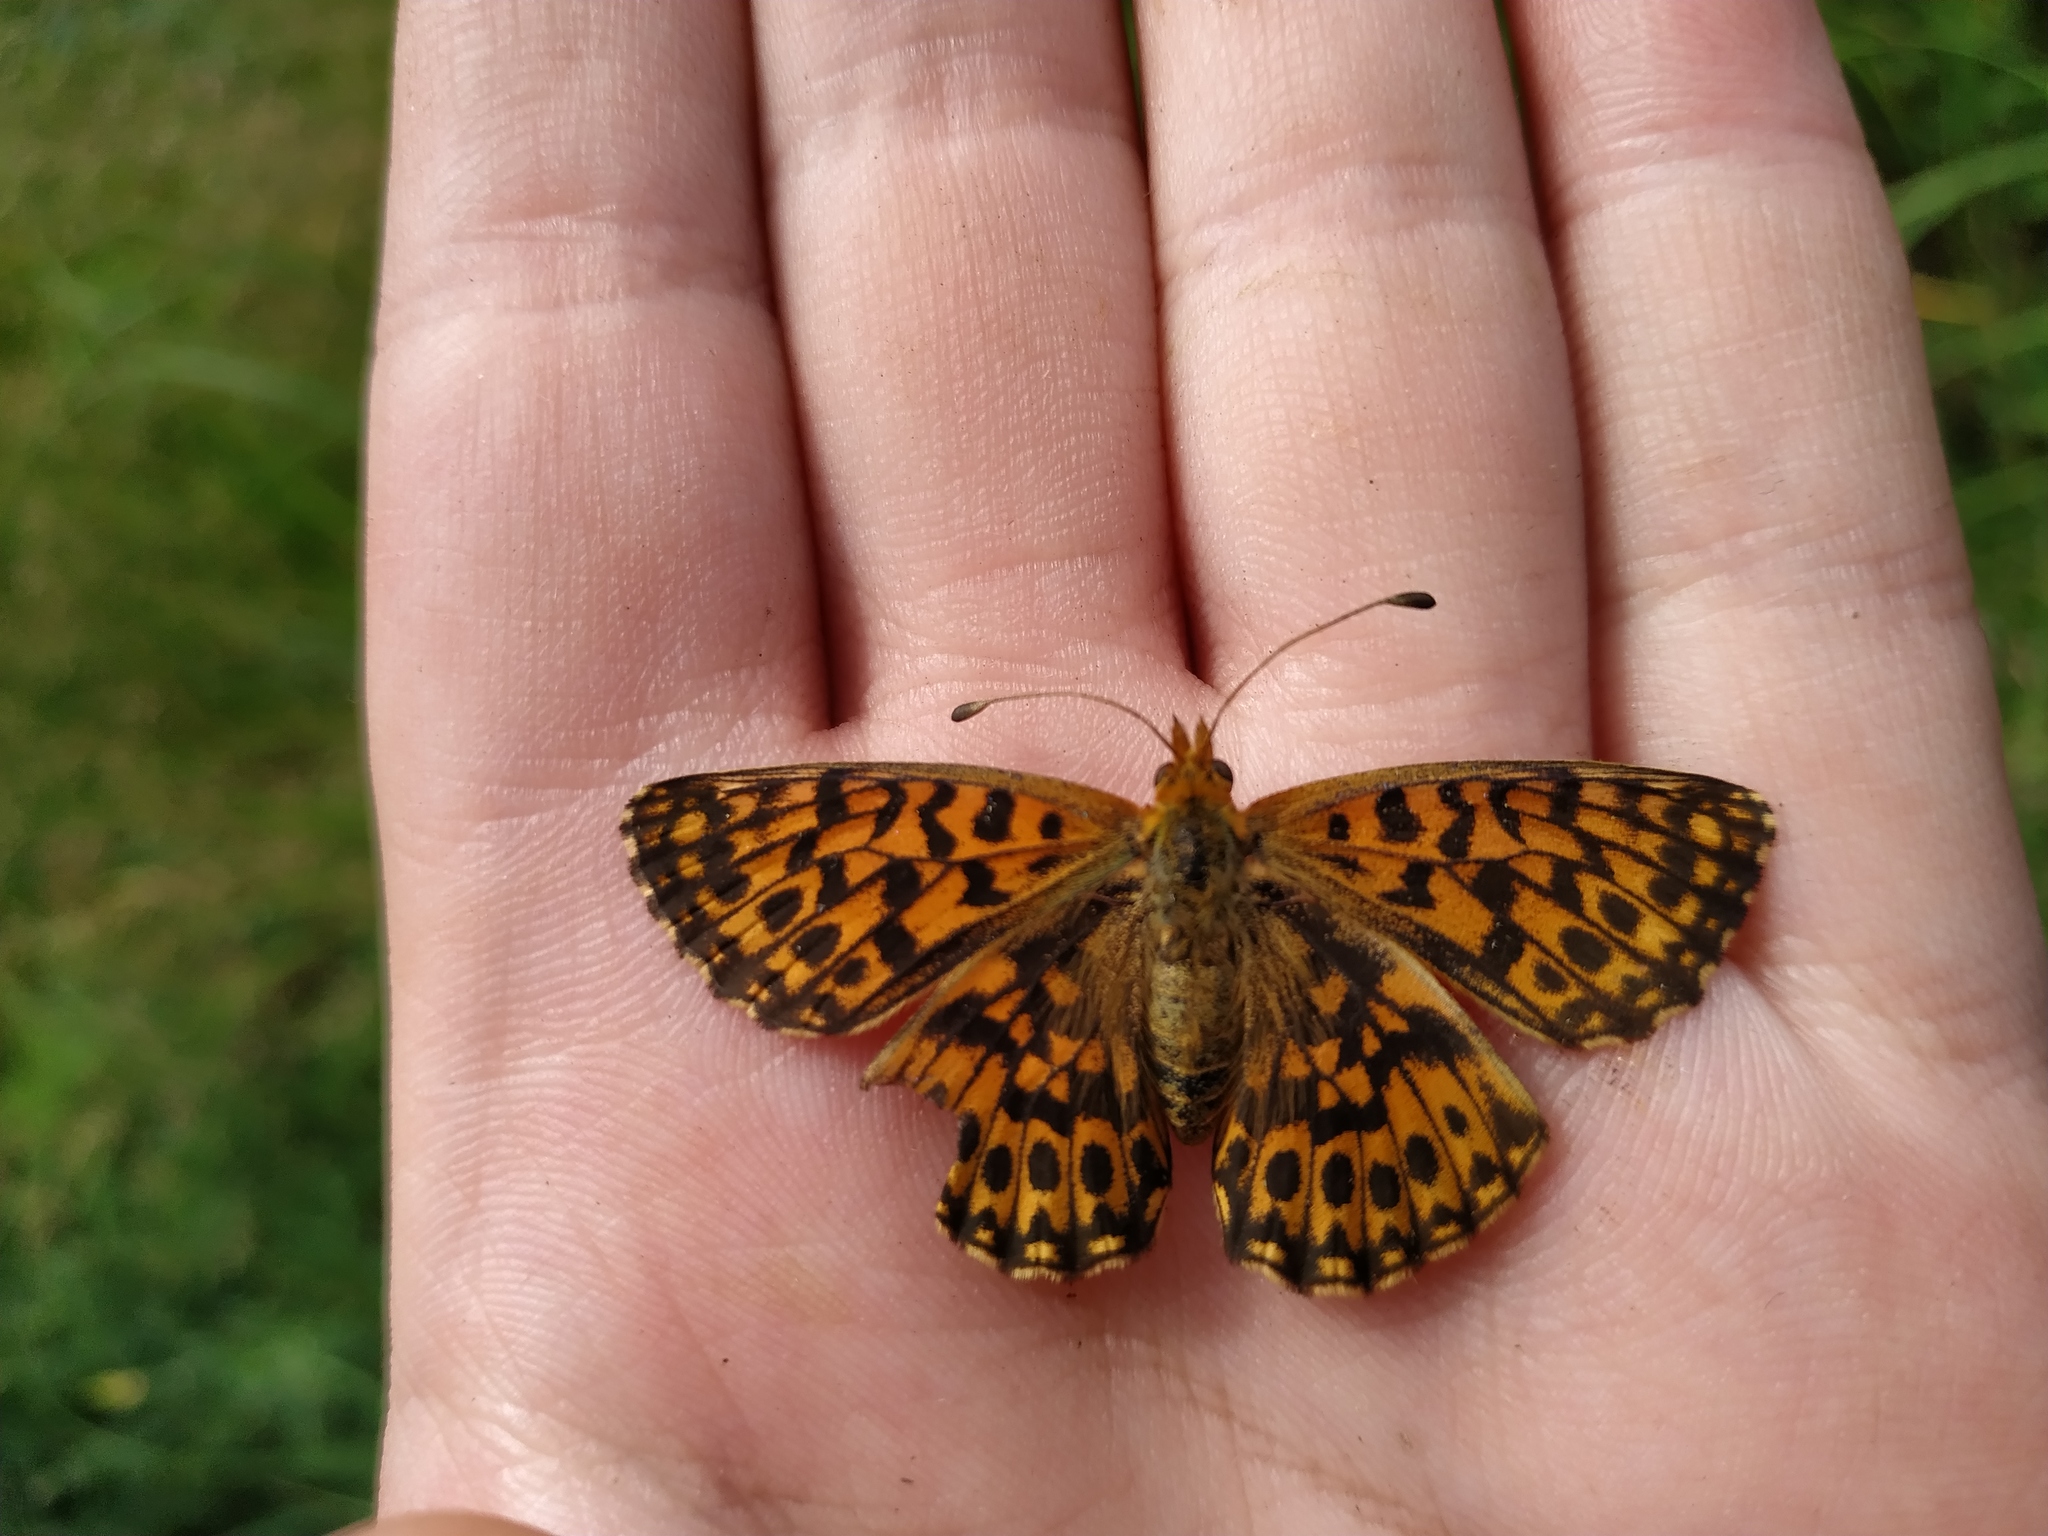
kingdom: Animalia
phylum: Arthropoda
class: Insecta
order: Lepidoptera
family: Nymphalidae
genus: Boloria
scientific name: Boloria dia
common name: Weaver's fritillary
